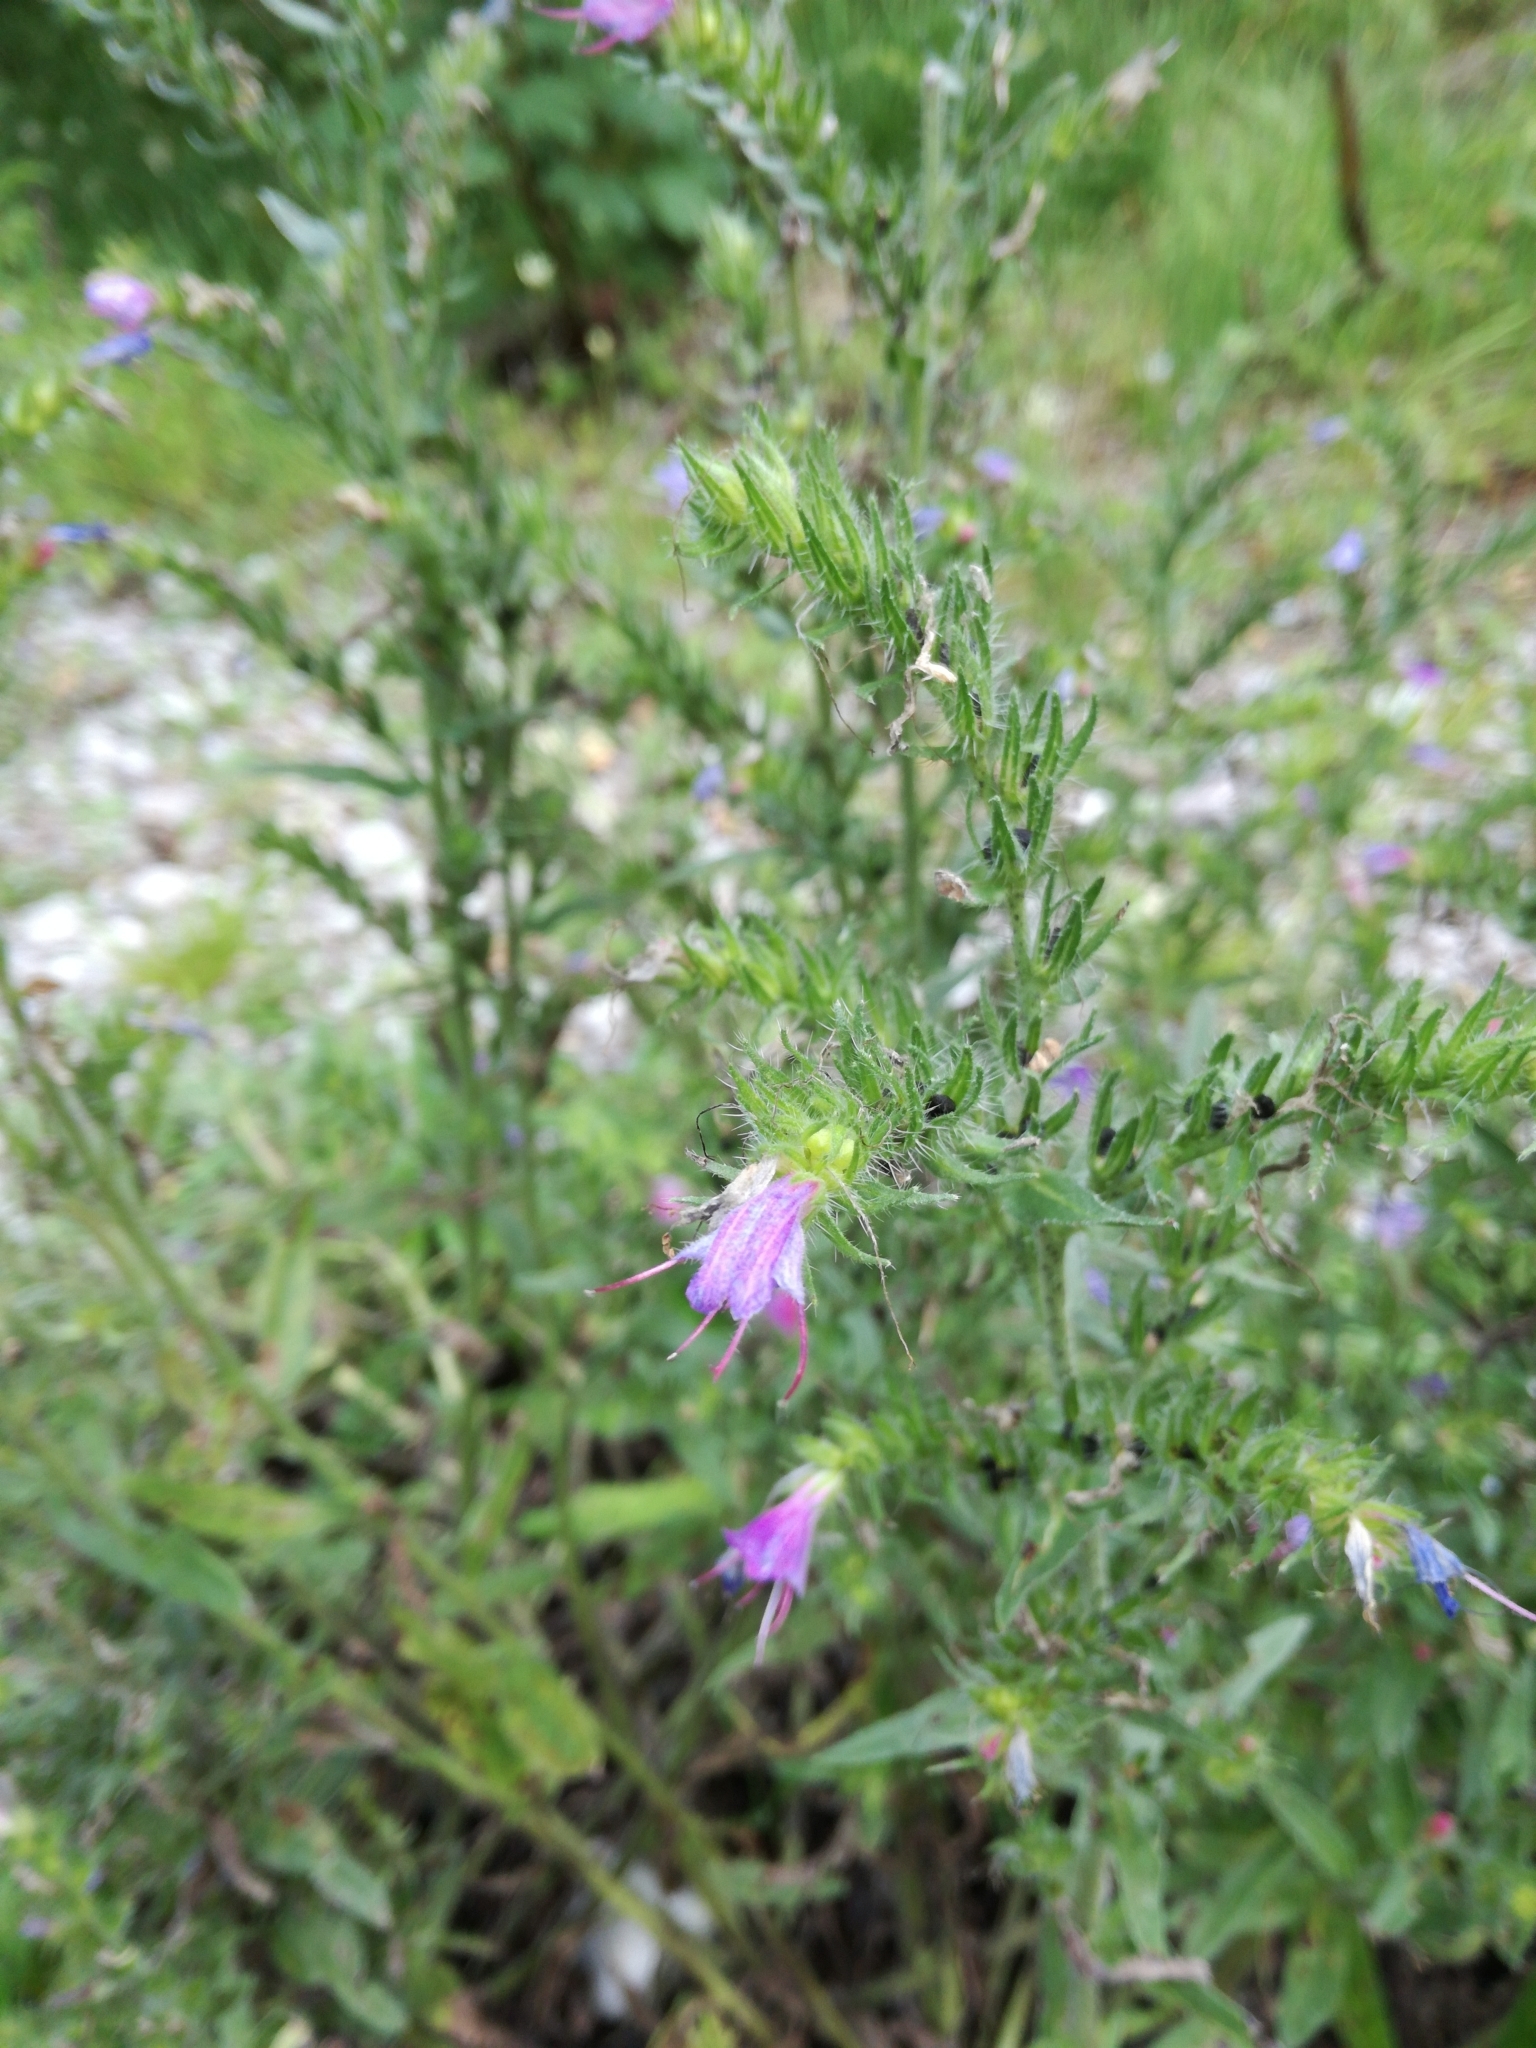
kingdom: Plantae
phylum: Tracheophyta
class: Magnoliopsida
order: Boraginales
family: Boraginaceae
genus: Echium
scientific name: Echium vulgare
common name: Common viper's bugloss
